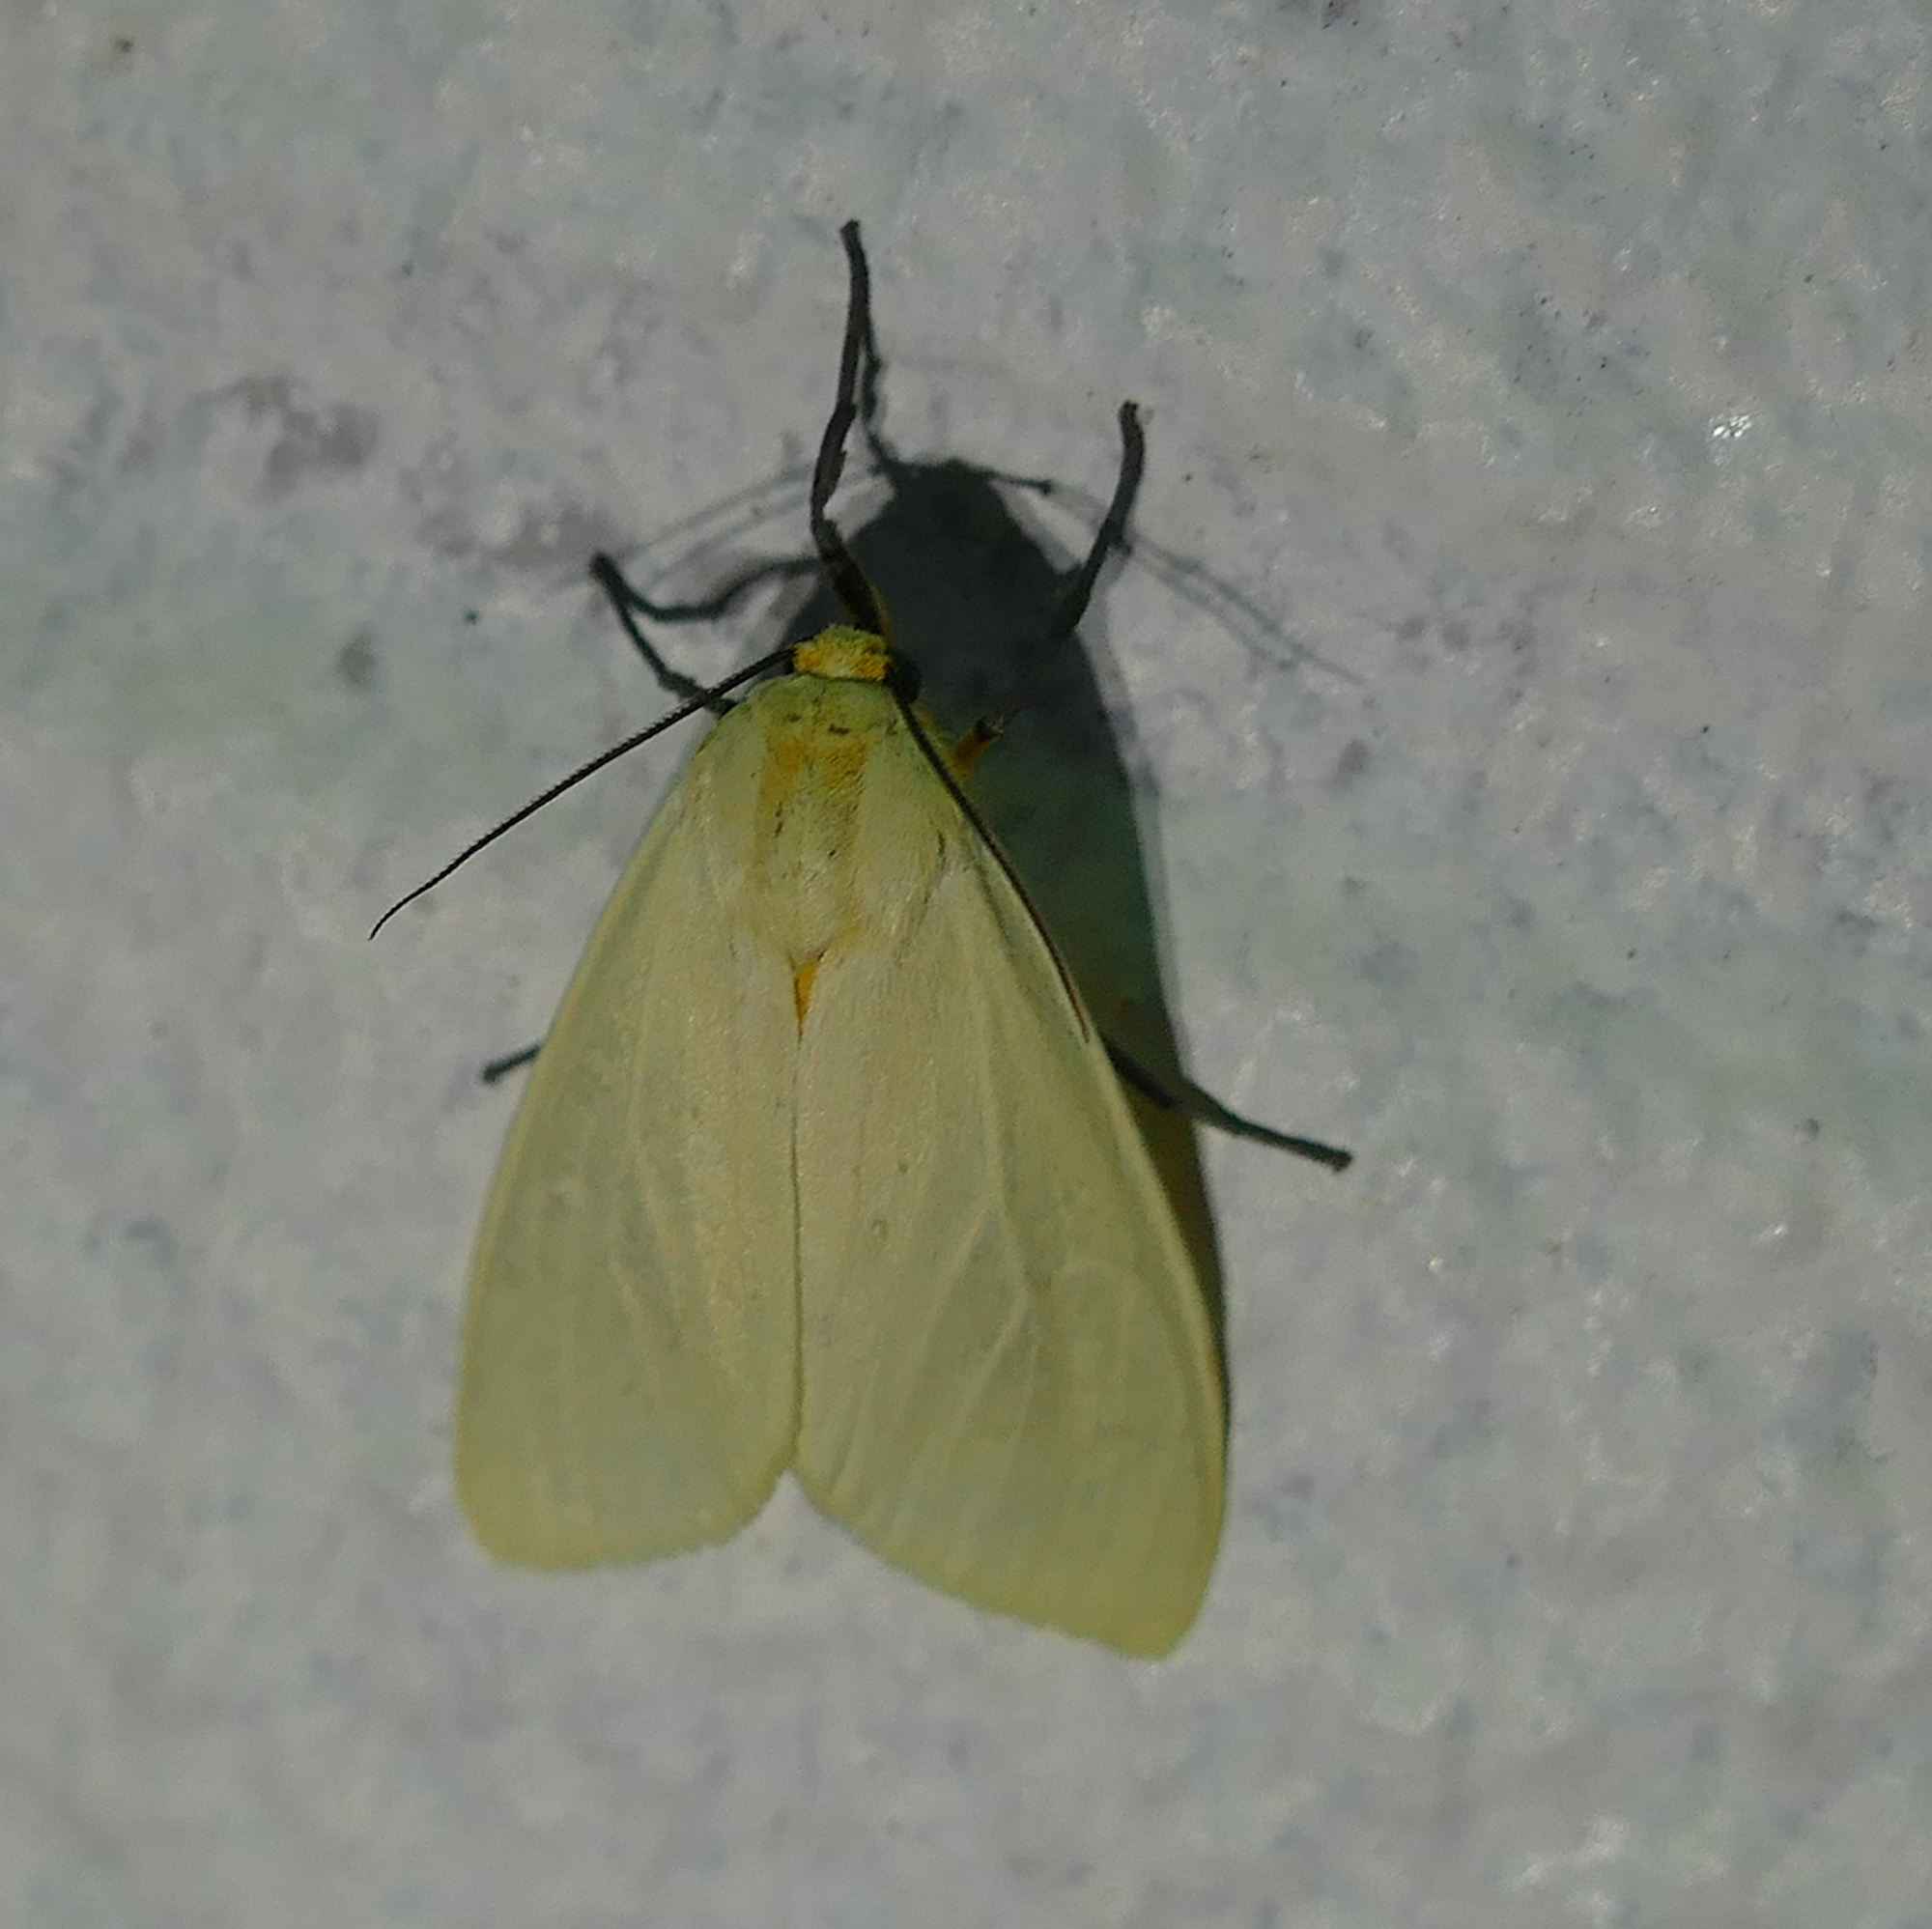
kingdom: Animalia
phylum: Arthropoda
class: Insecta
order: Lepidoptera
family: Erebidae
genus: Pareuchaetes
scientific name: Pareuchaetes insulata
